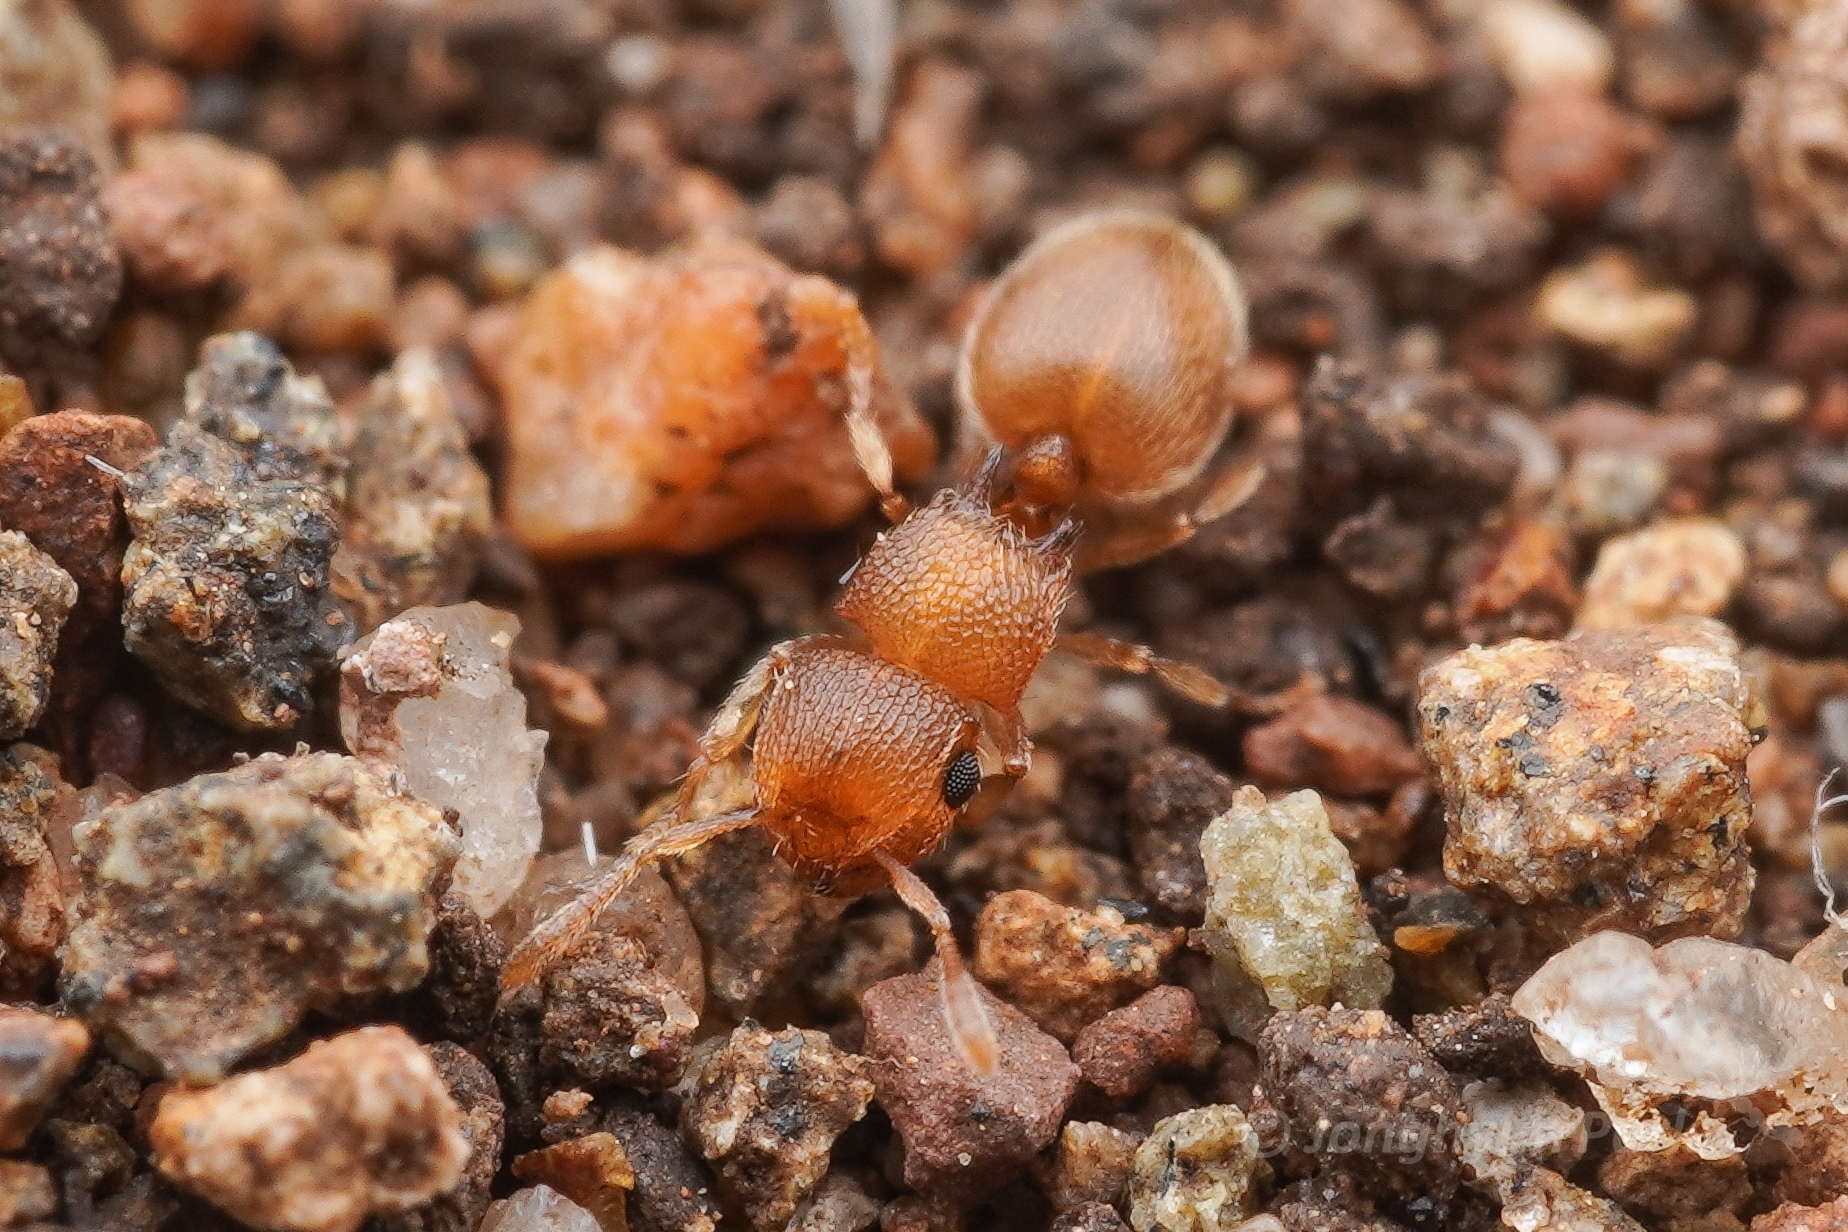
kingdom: Animalia
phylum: Arthropoda
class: Insecta
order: Hymenoptera
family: Formicidae
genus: Meranoplus
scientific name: Meranoplus glaber
